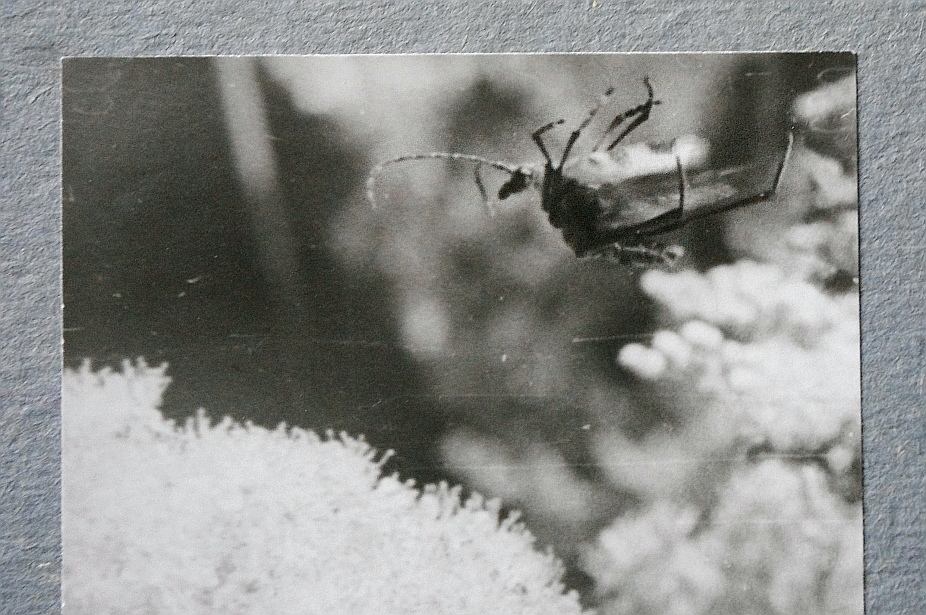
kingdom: Animalia
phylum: Arthropoda
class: Insecta
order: Coleoptera
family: Cerambycidae
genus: Pachyta
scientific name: Pachyta quadrimaculata
